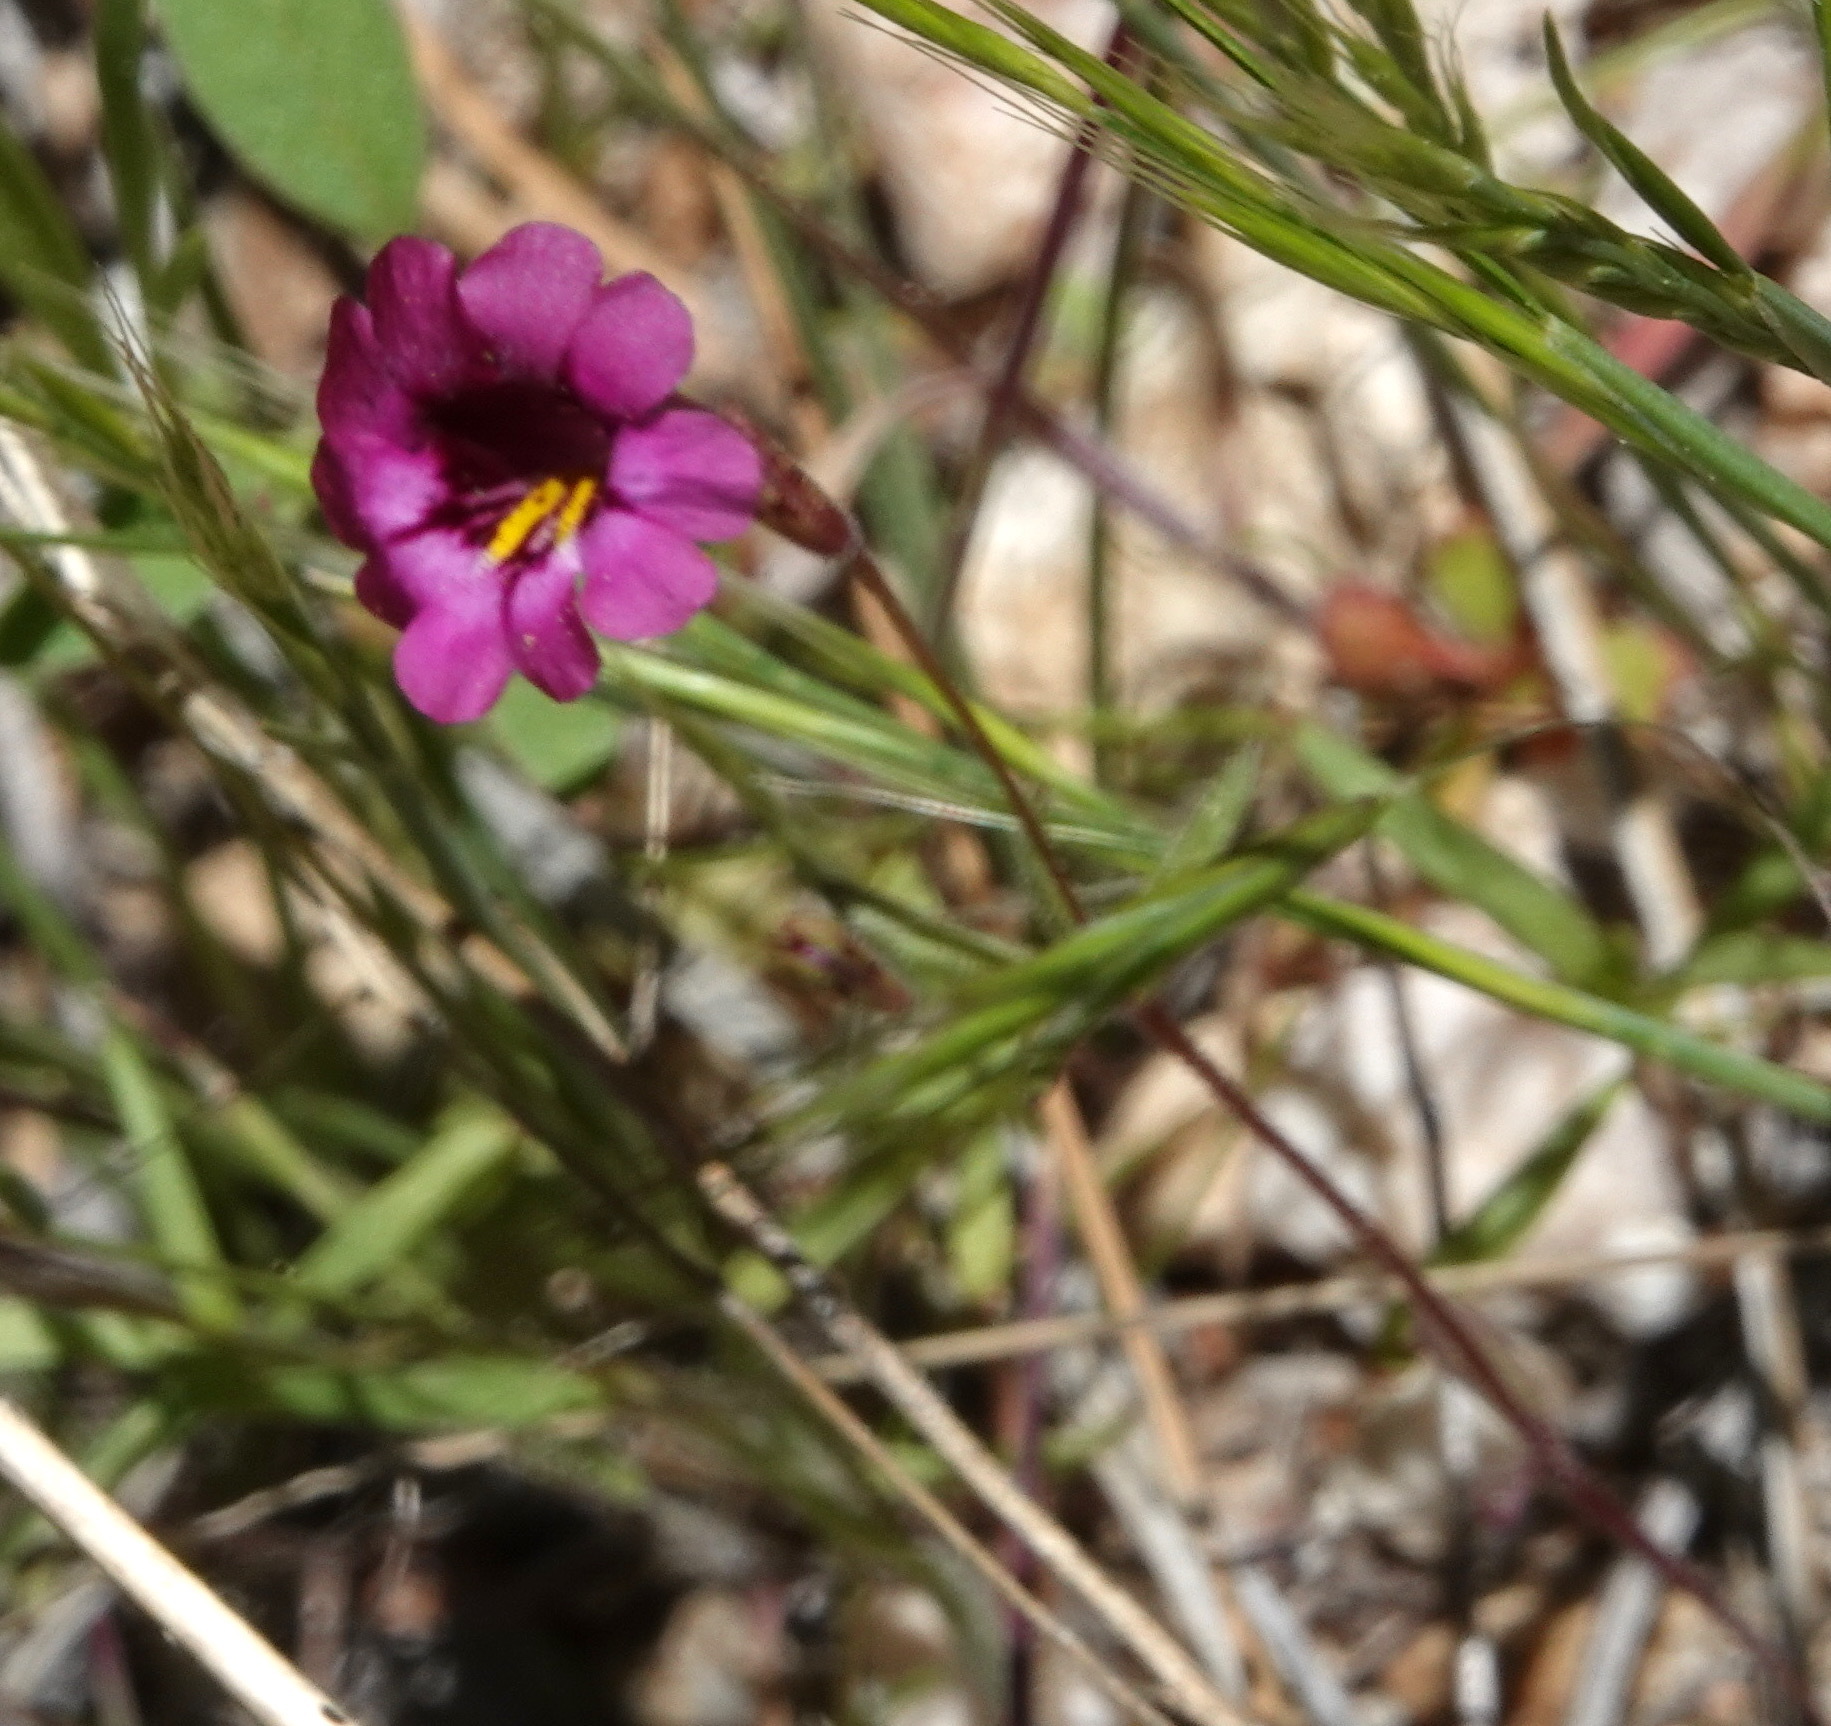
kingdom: Plantae
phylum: Tracheophyta
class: Magnoliopsida
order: Lamiales
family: Phrymaceae
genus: Erythranthe
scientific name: Erythranthe palmeri
